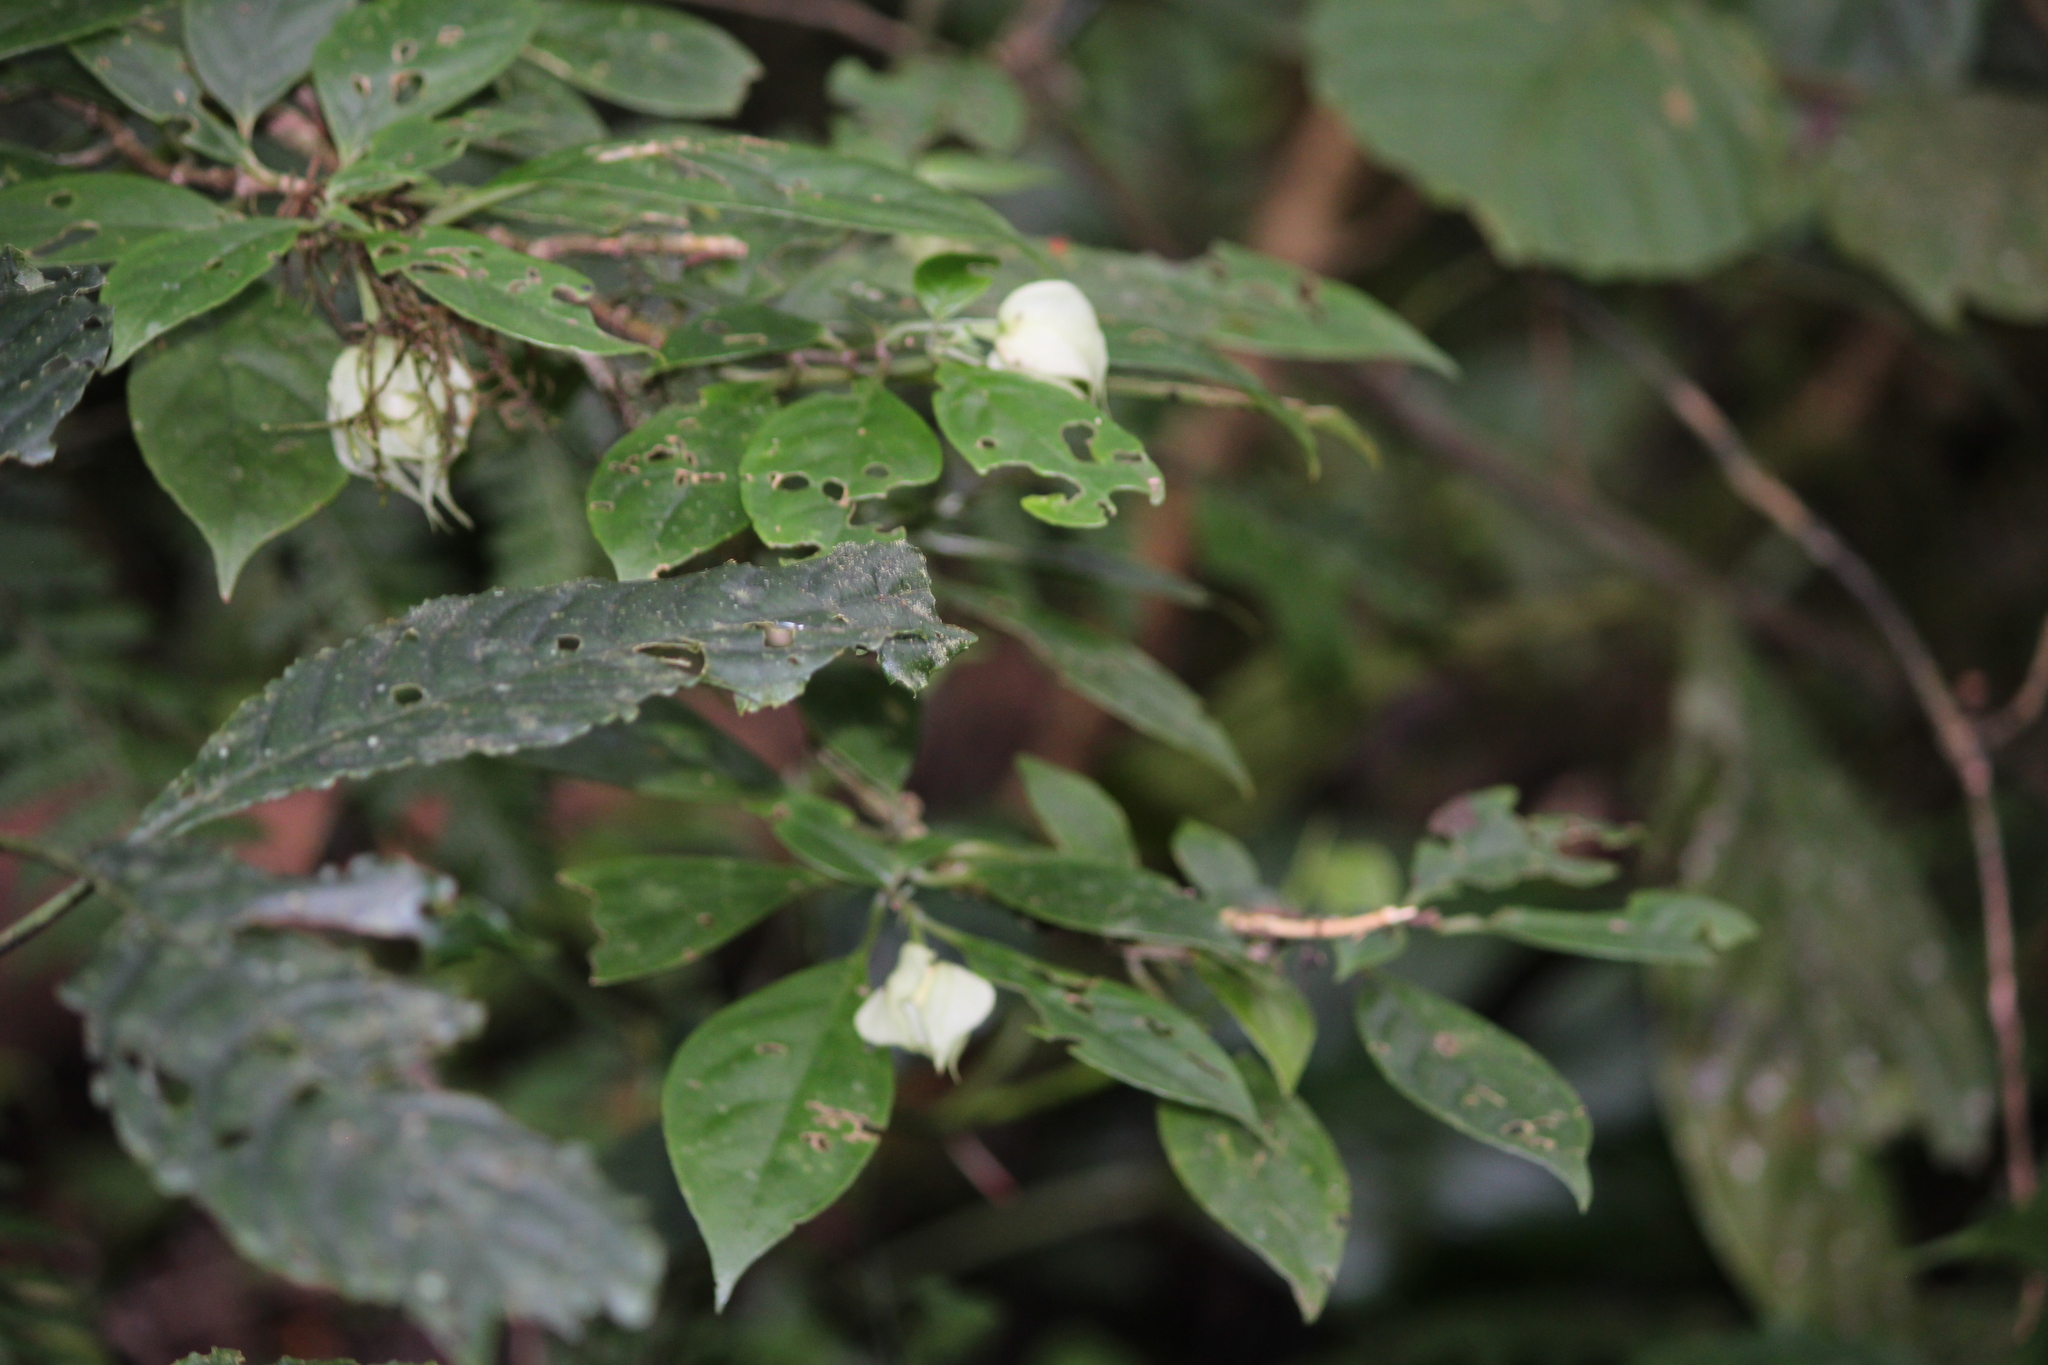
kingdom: Plantae
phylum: Tracheophyta
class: Magnoliopsida
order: Lamiales
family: Gesneriaceae
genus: Drymonia
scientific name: Drymonia rubra
